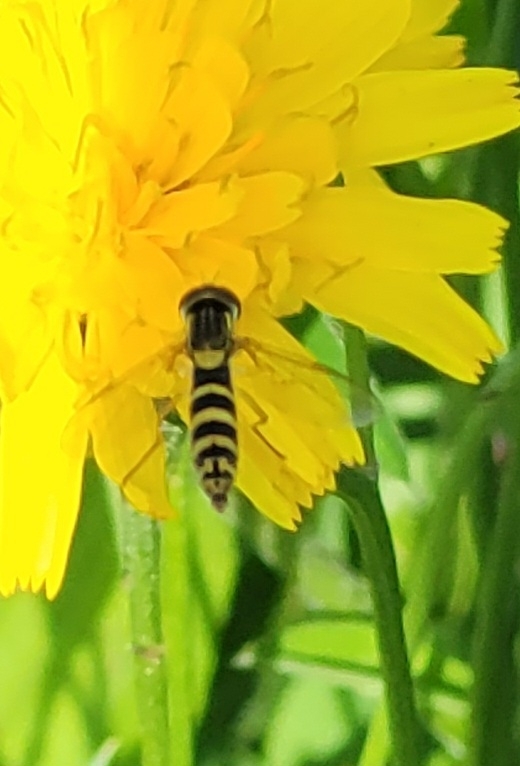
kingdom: Animalia
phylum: Arthropoda
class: Insecta
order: Diptera
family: Syrphidae
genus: Sphaerophoria
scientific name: Sphaerophoria scripta
